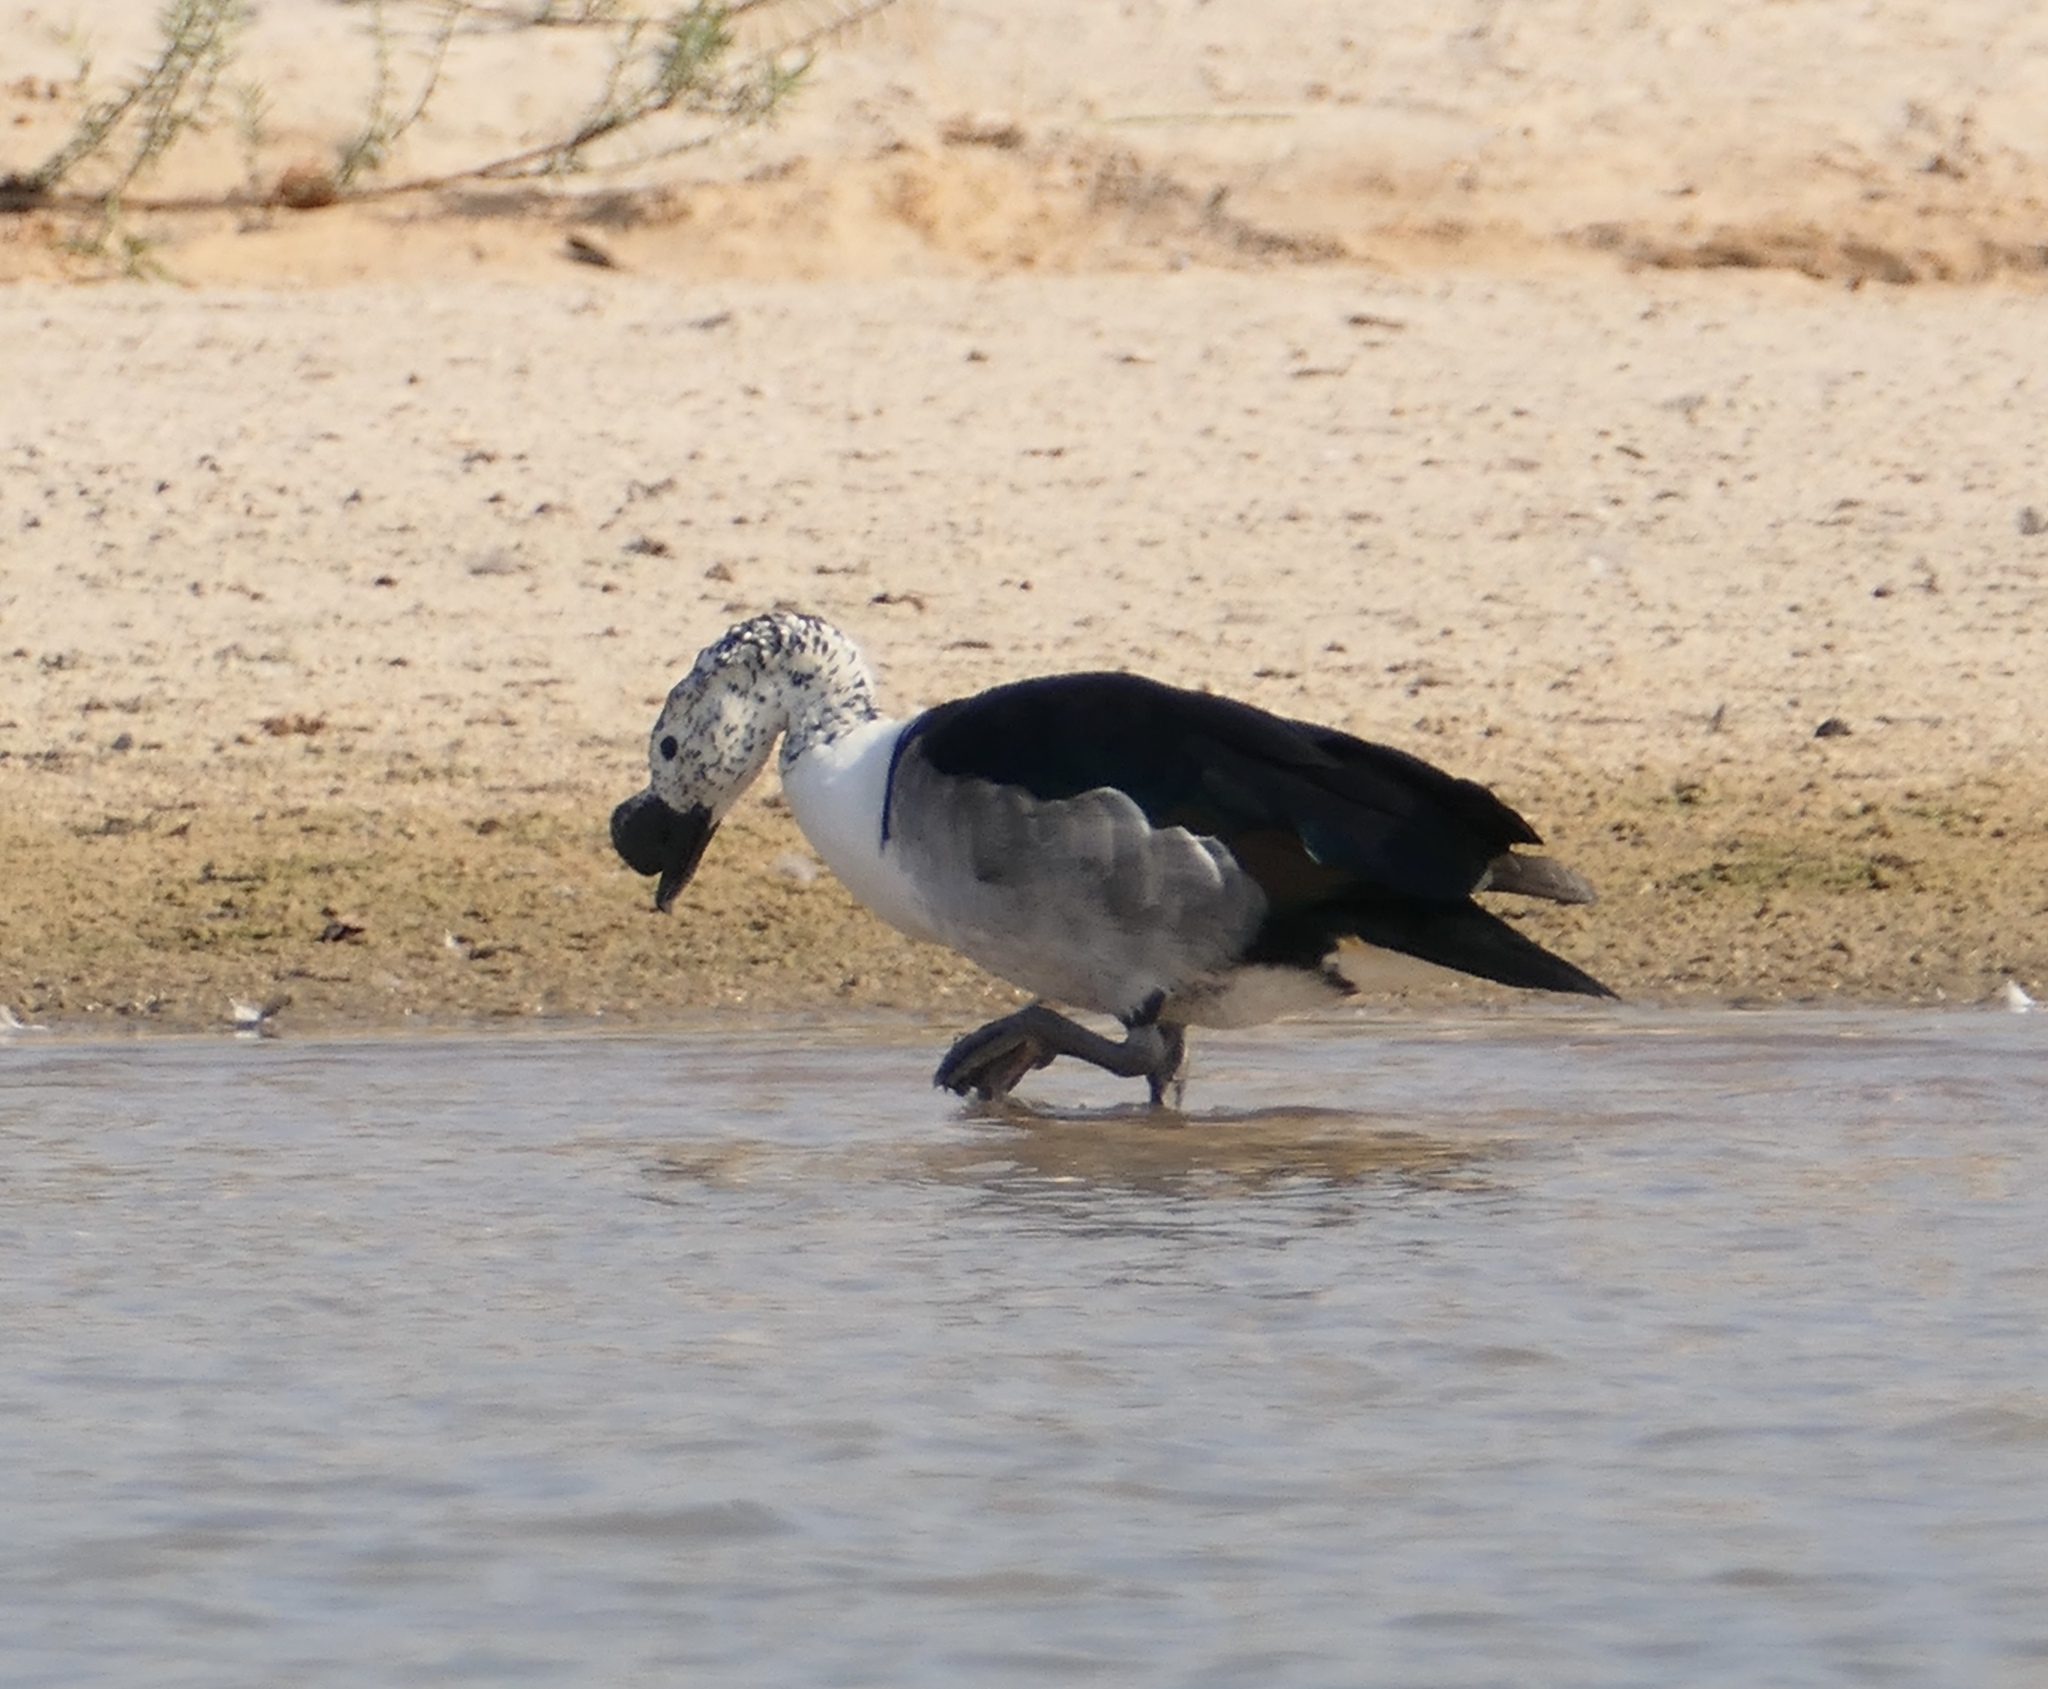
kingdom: Animalia
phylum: Chordata
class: Aves
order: Anseriformes
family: Anatidae
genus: Sarkidiornis
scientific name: Sarkidiornis melanotos
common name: Comb duck
